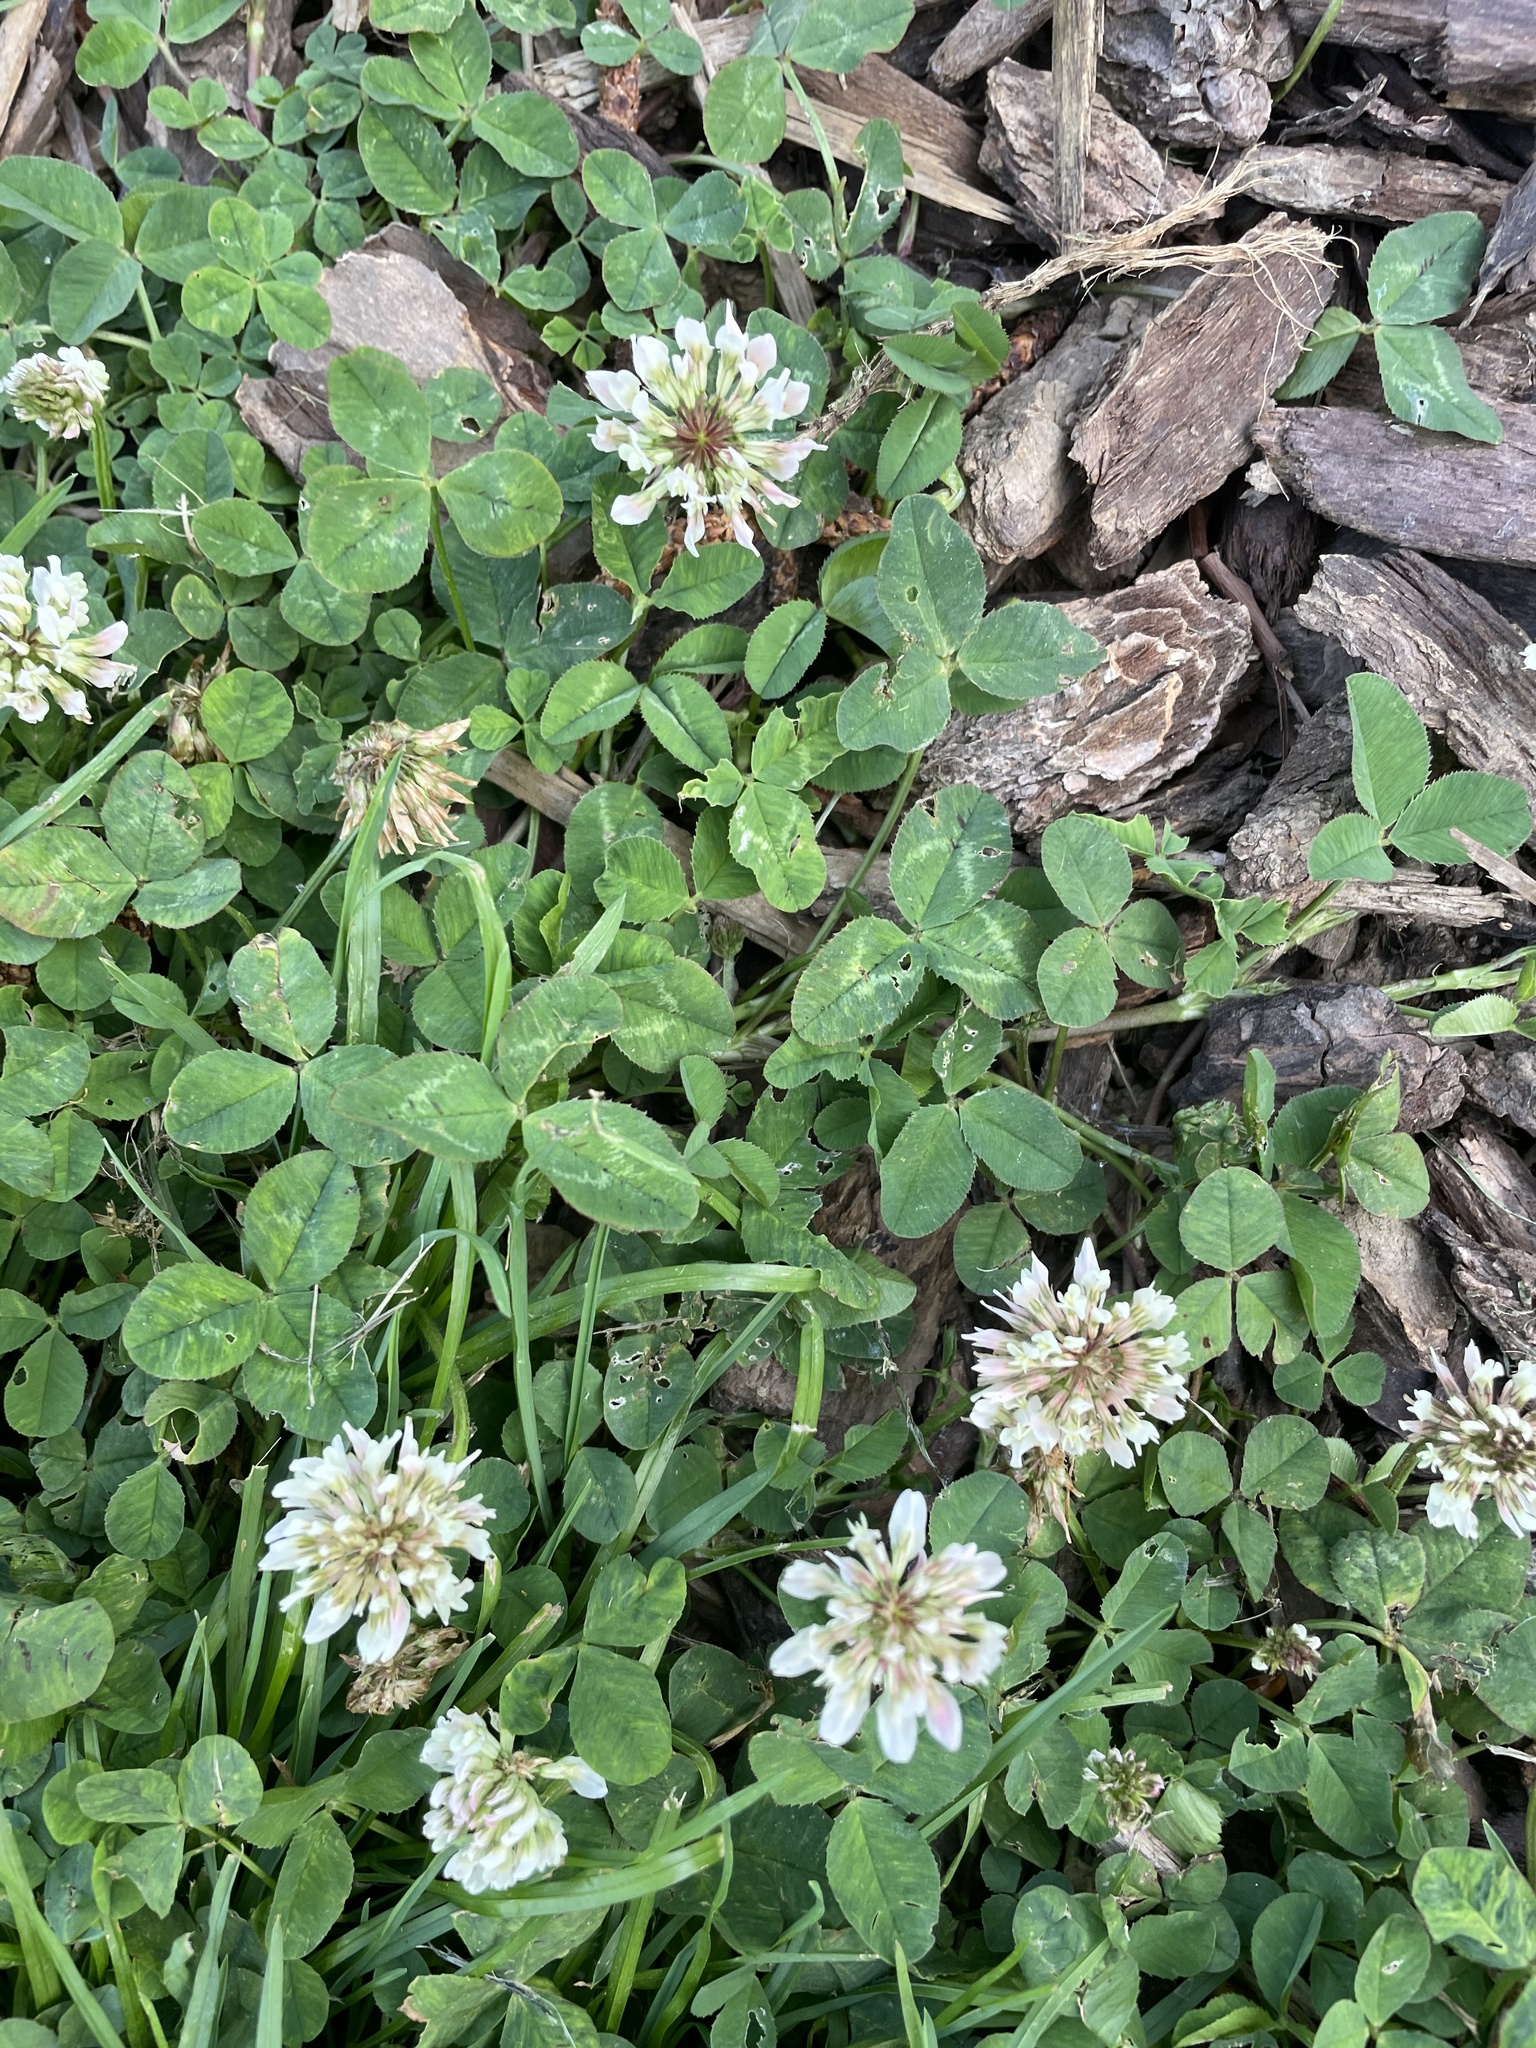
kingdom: Plantae
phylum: Tracheophyta
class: Magnoliopsida
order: Fabales
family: Fabaceae
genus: Trifolium
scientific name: Trifolium repens
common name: White clover
